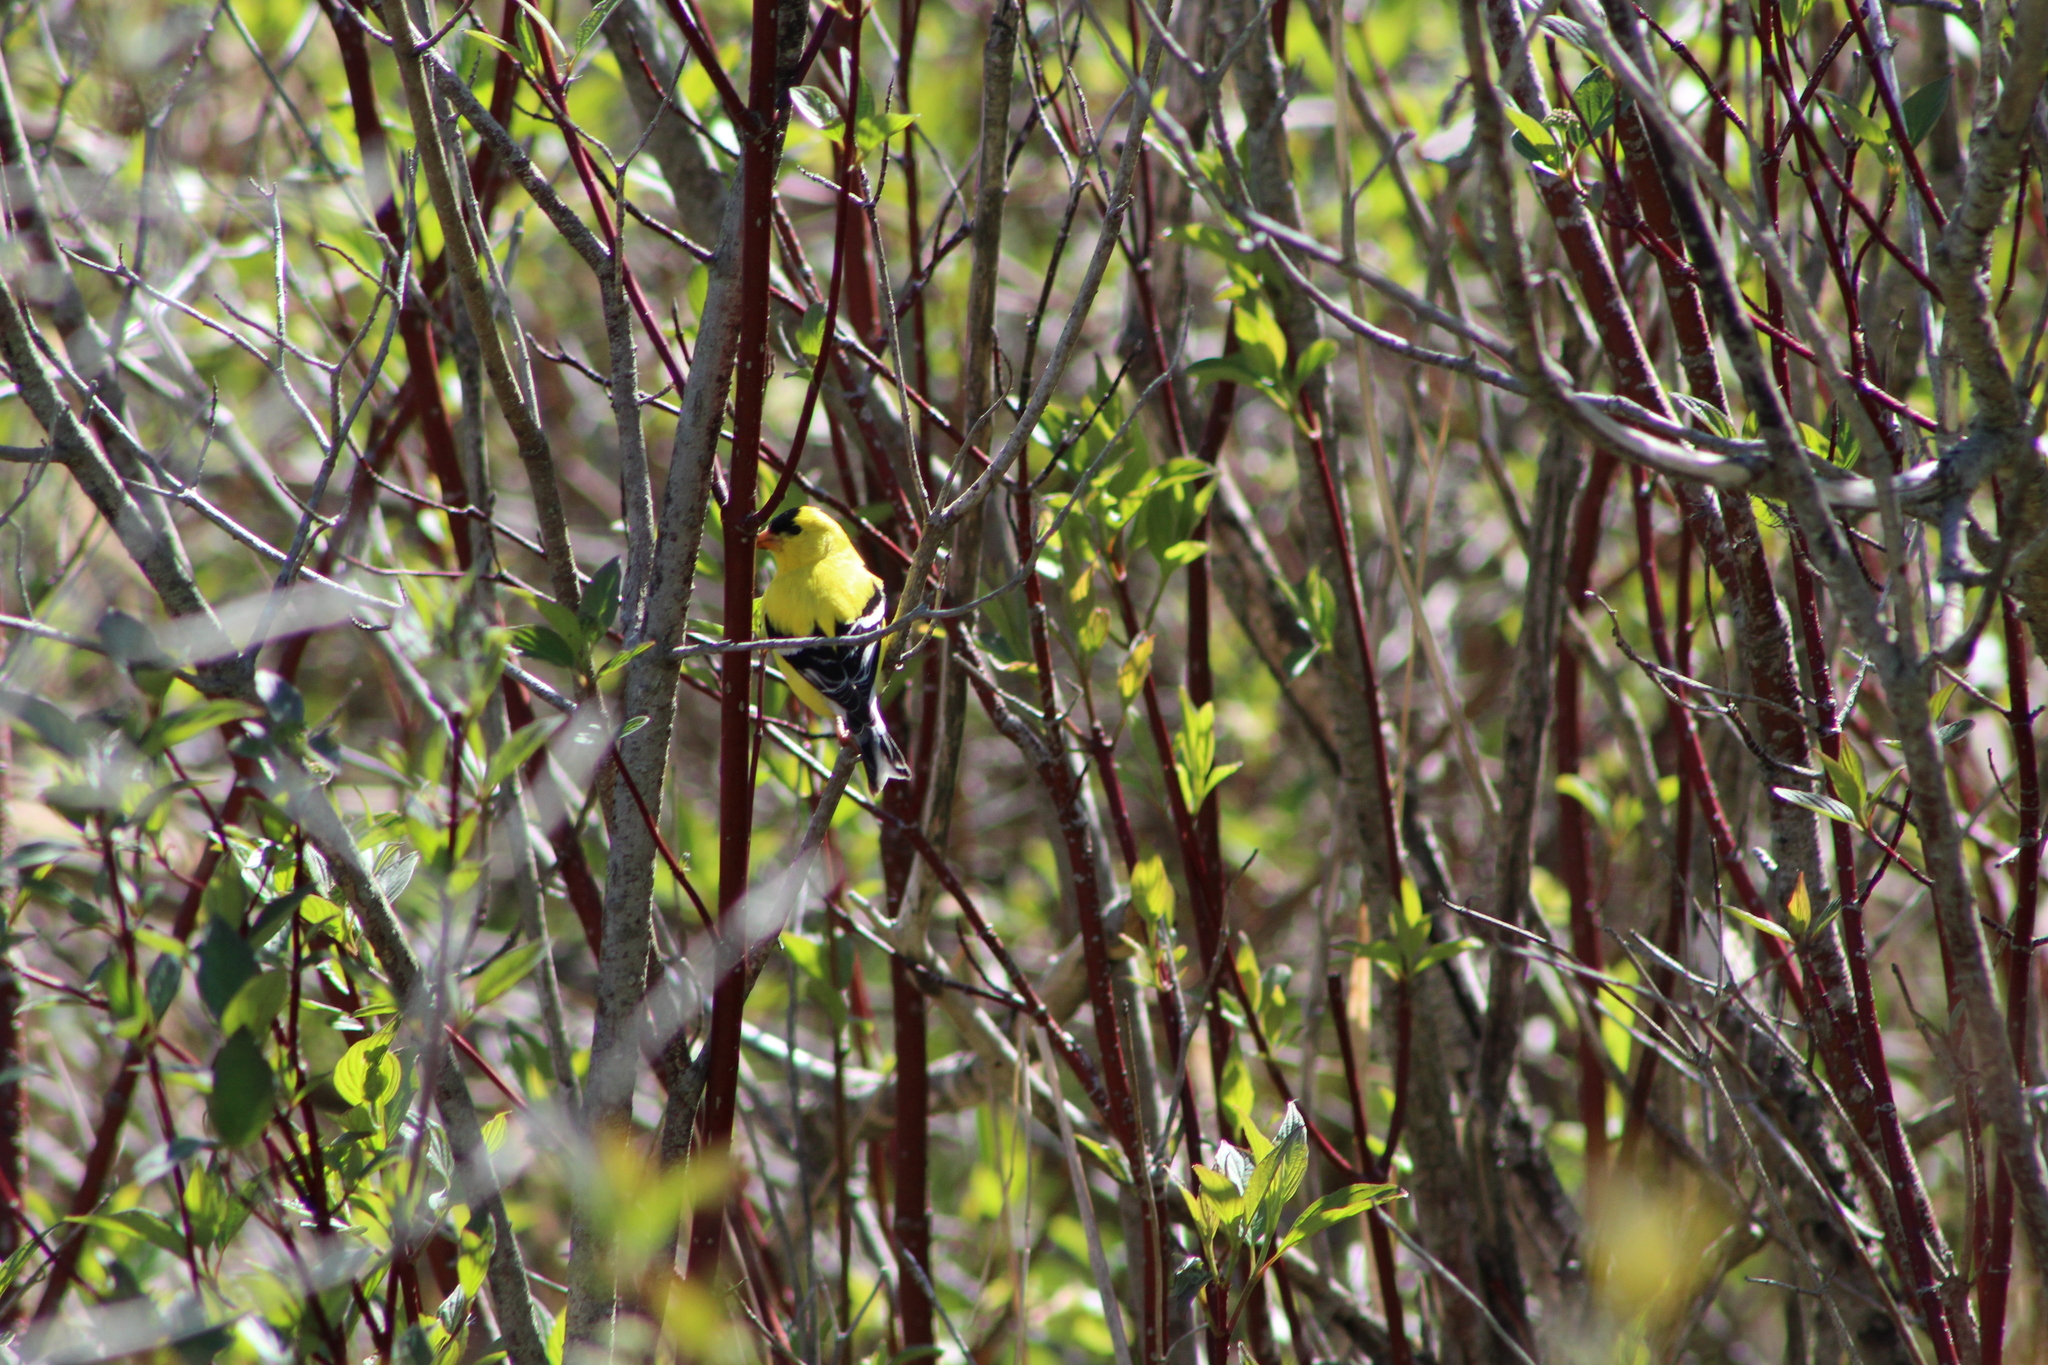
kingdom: Animalia
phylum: Chordata
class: Aves
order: Passeriformes
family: Fringillidae
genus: Spinus
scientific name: Spinus tristis
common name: American goldfinch
